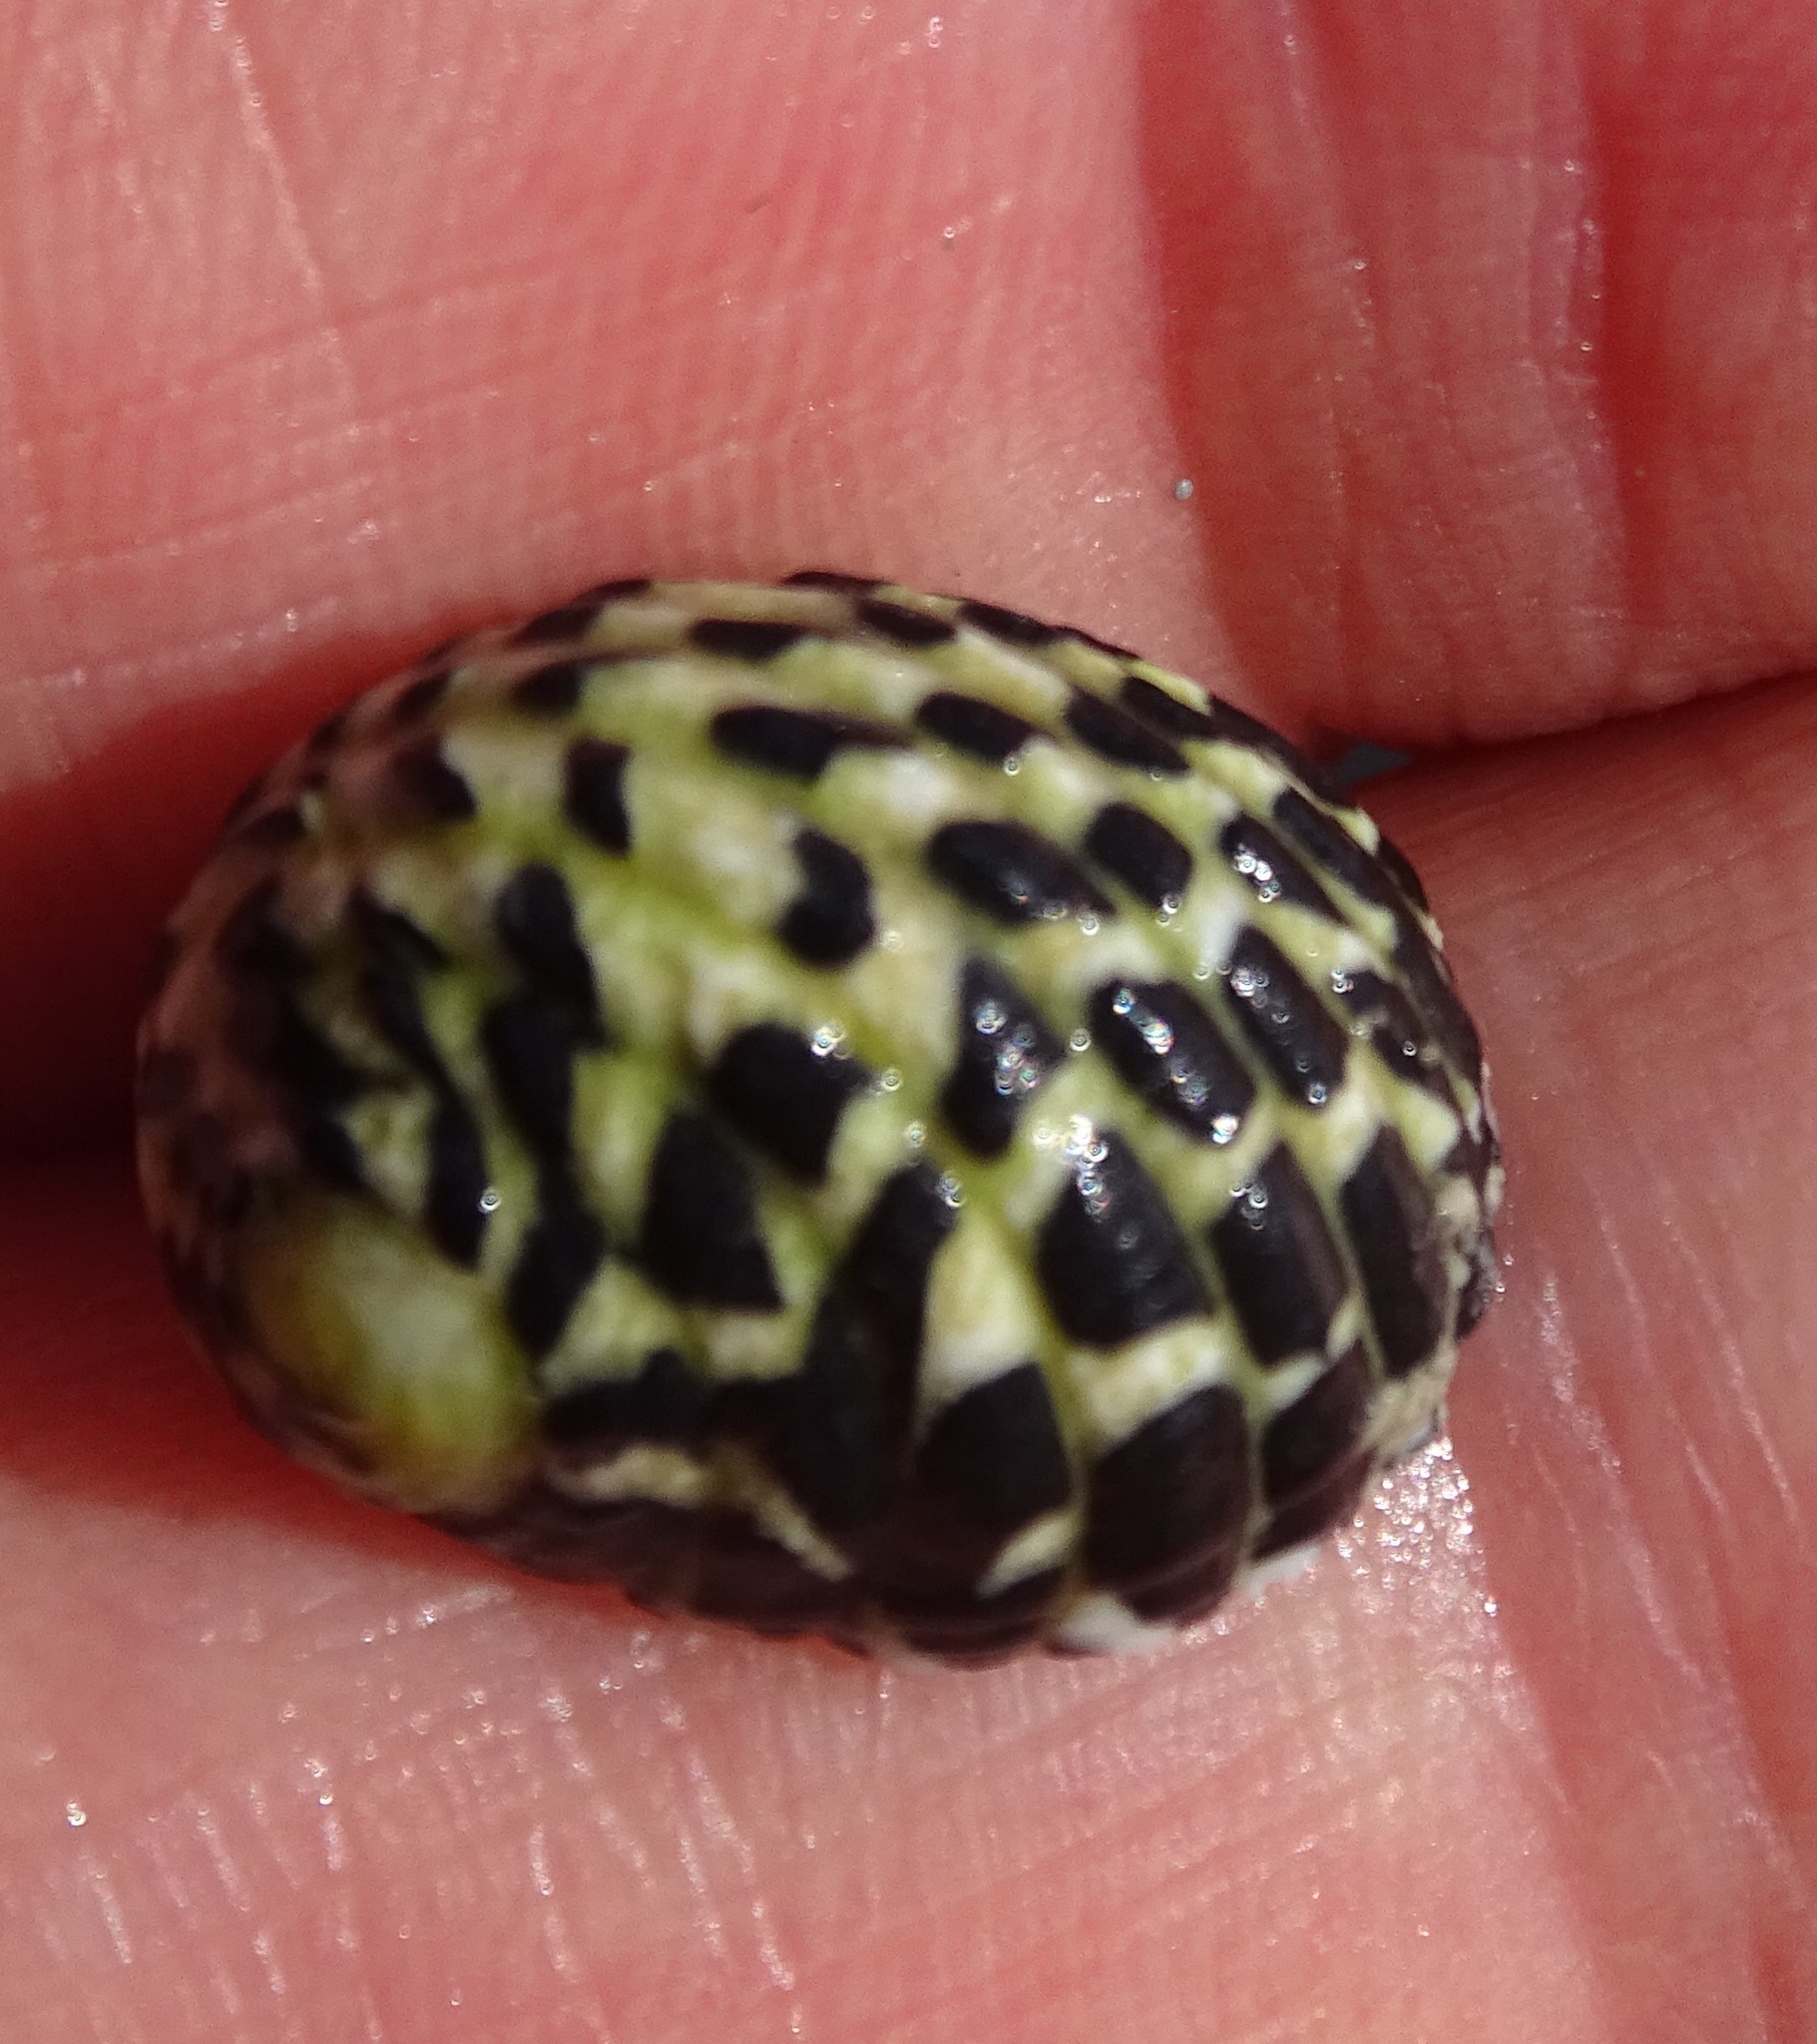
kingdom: Animalia
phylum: Mollusca
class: Gastropoda
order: Cycloneritida
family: Neritidae
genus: Nerita
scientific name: Nerita tessellata
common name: Checkered nerite
